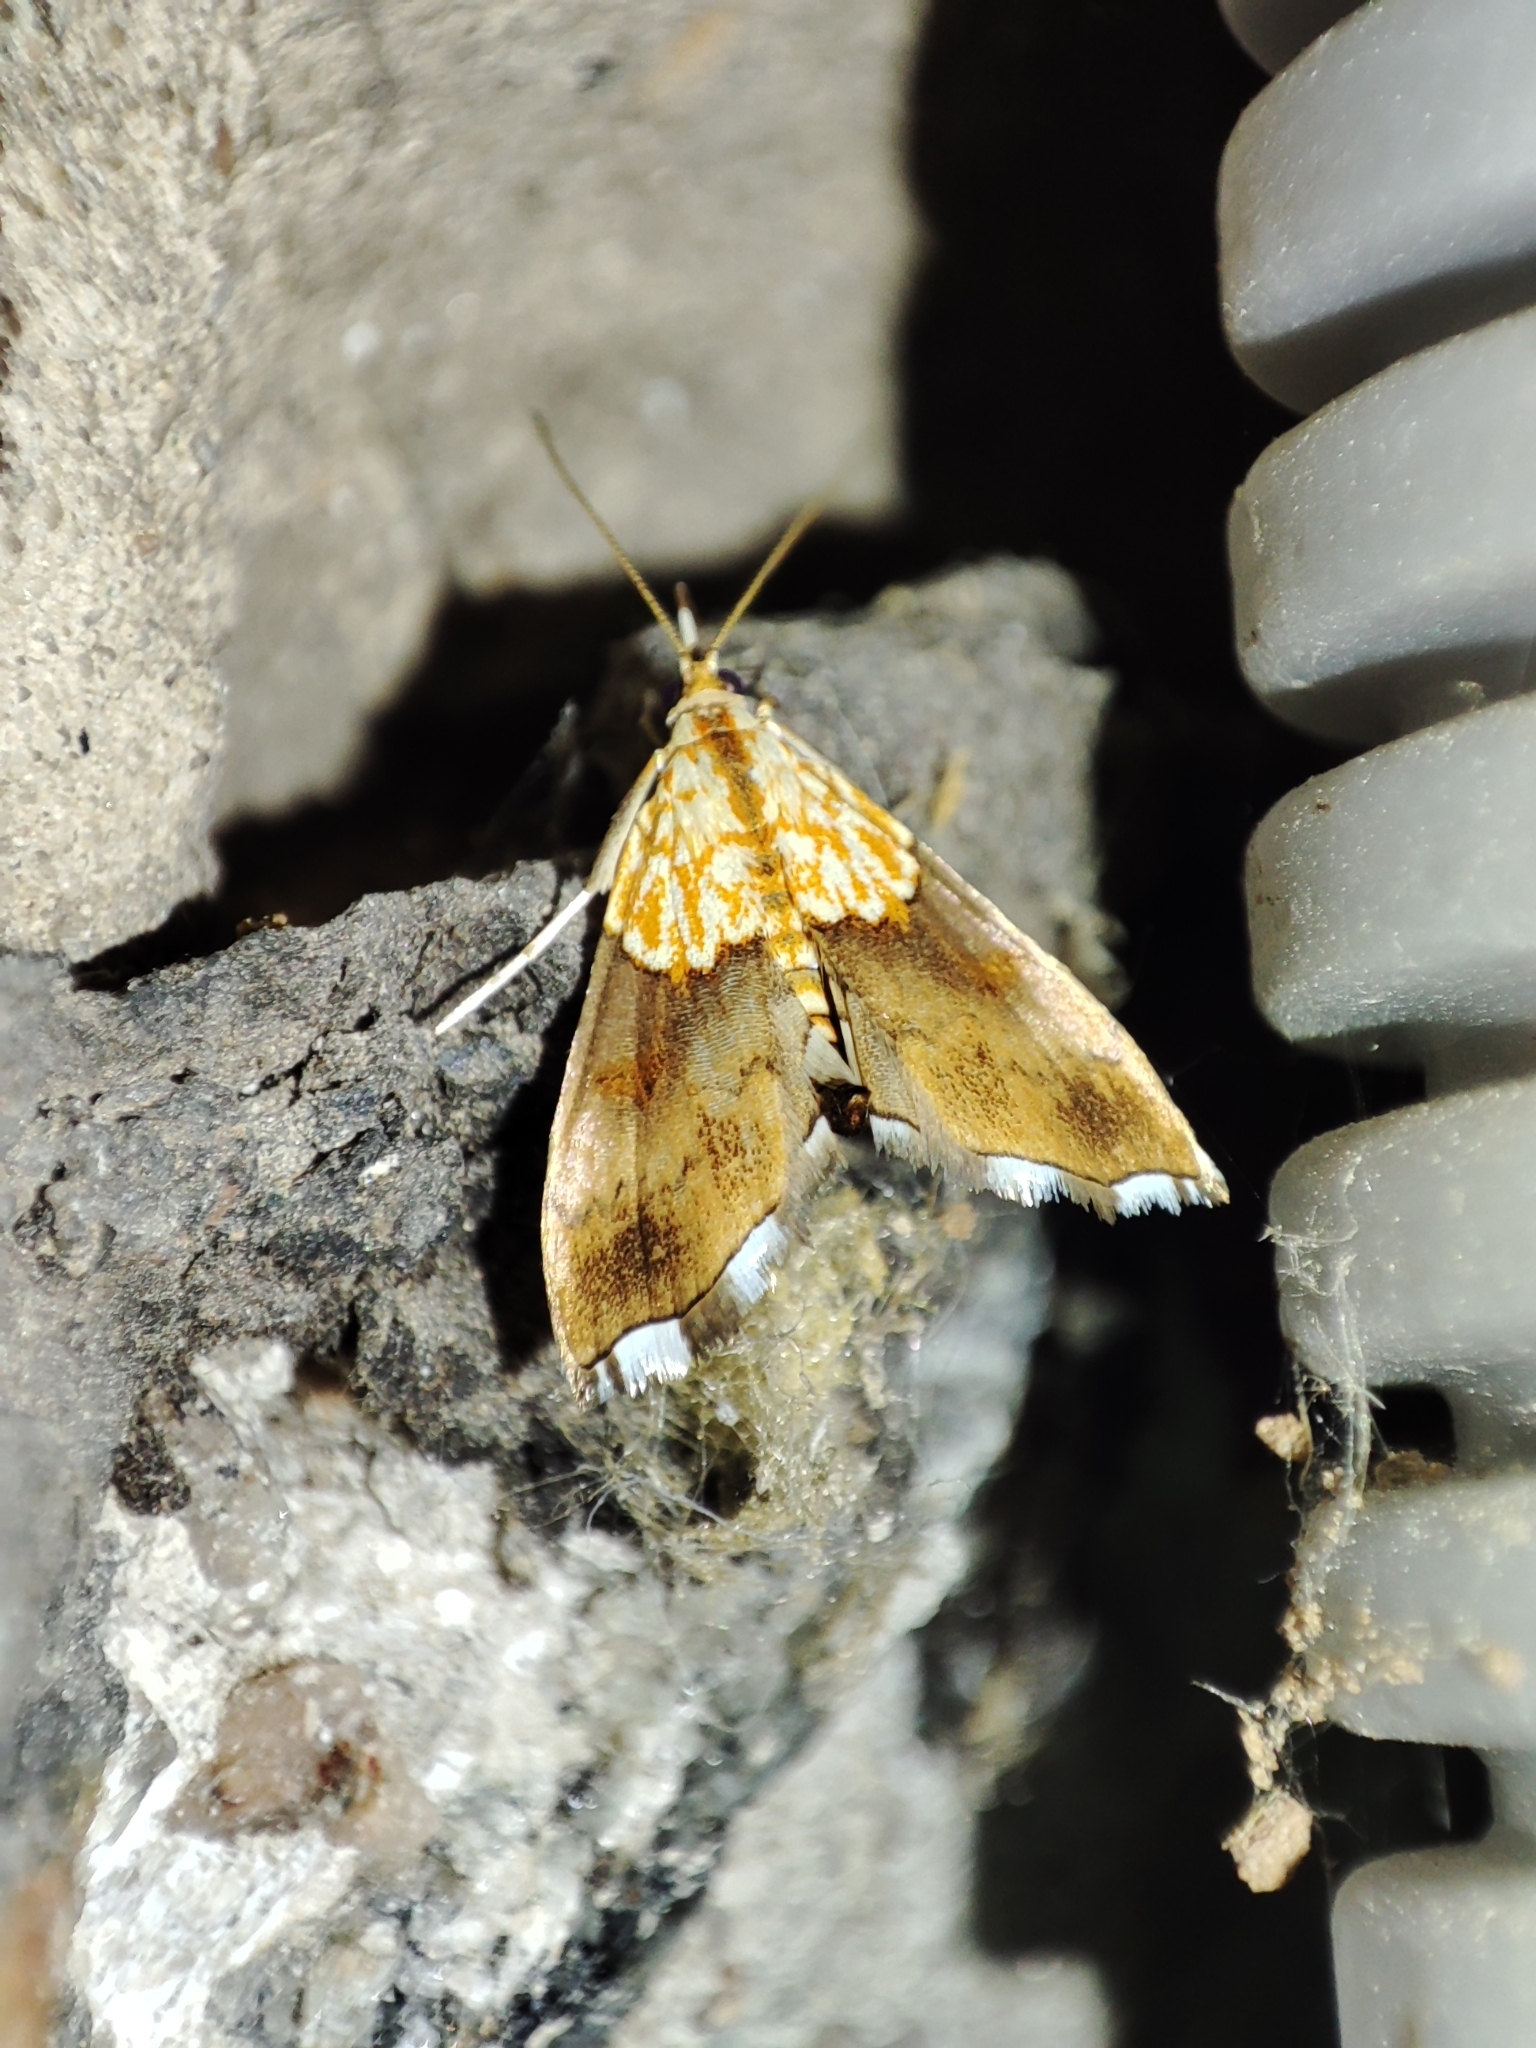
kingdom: Animalia
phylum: Arthropoda
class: Insecta
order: Lepidoptera
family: Crambidae
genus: Agrotera
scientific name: Agrotera nemoralis
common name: Beautiful pearl
